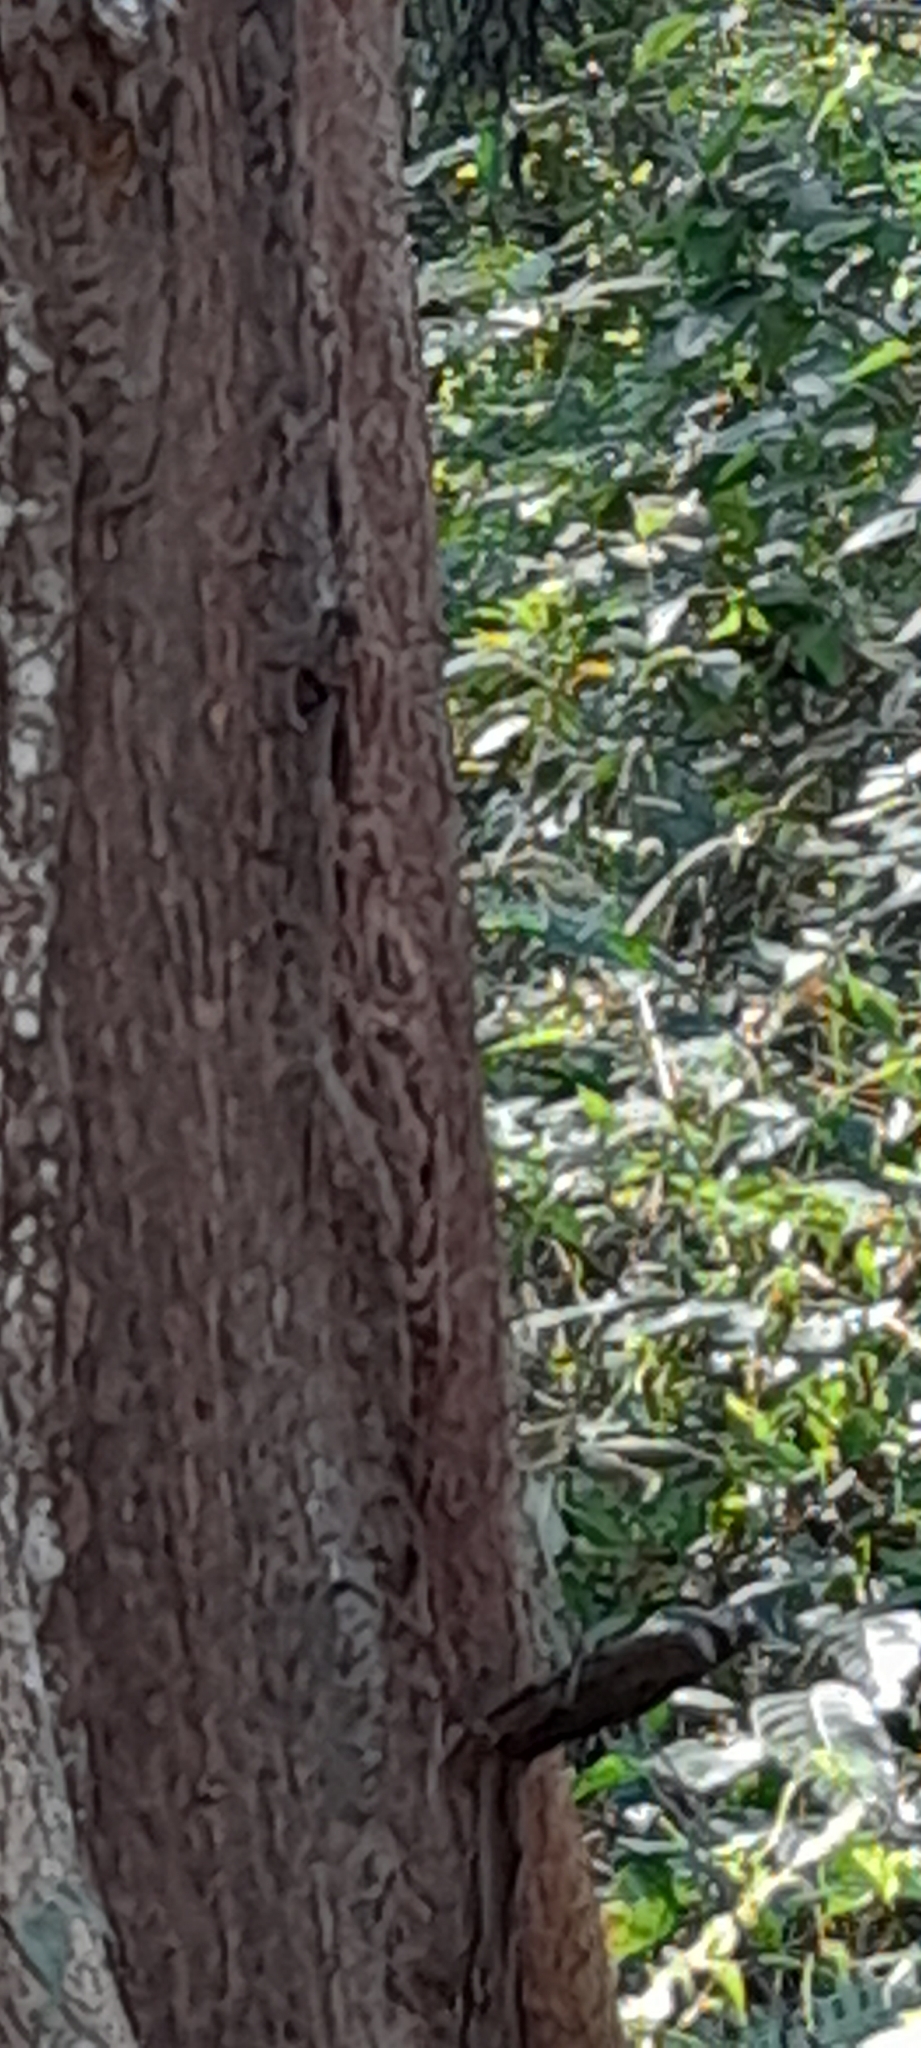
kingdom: Animalia
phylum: Chordata
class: Mammalia
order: Rodentia
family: Sciuridae
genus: Tamiops
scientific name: Tamiops mcclellandii
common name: Himalayan striped squirrel
